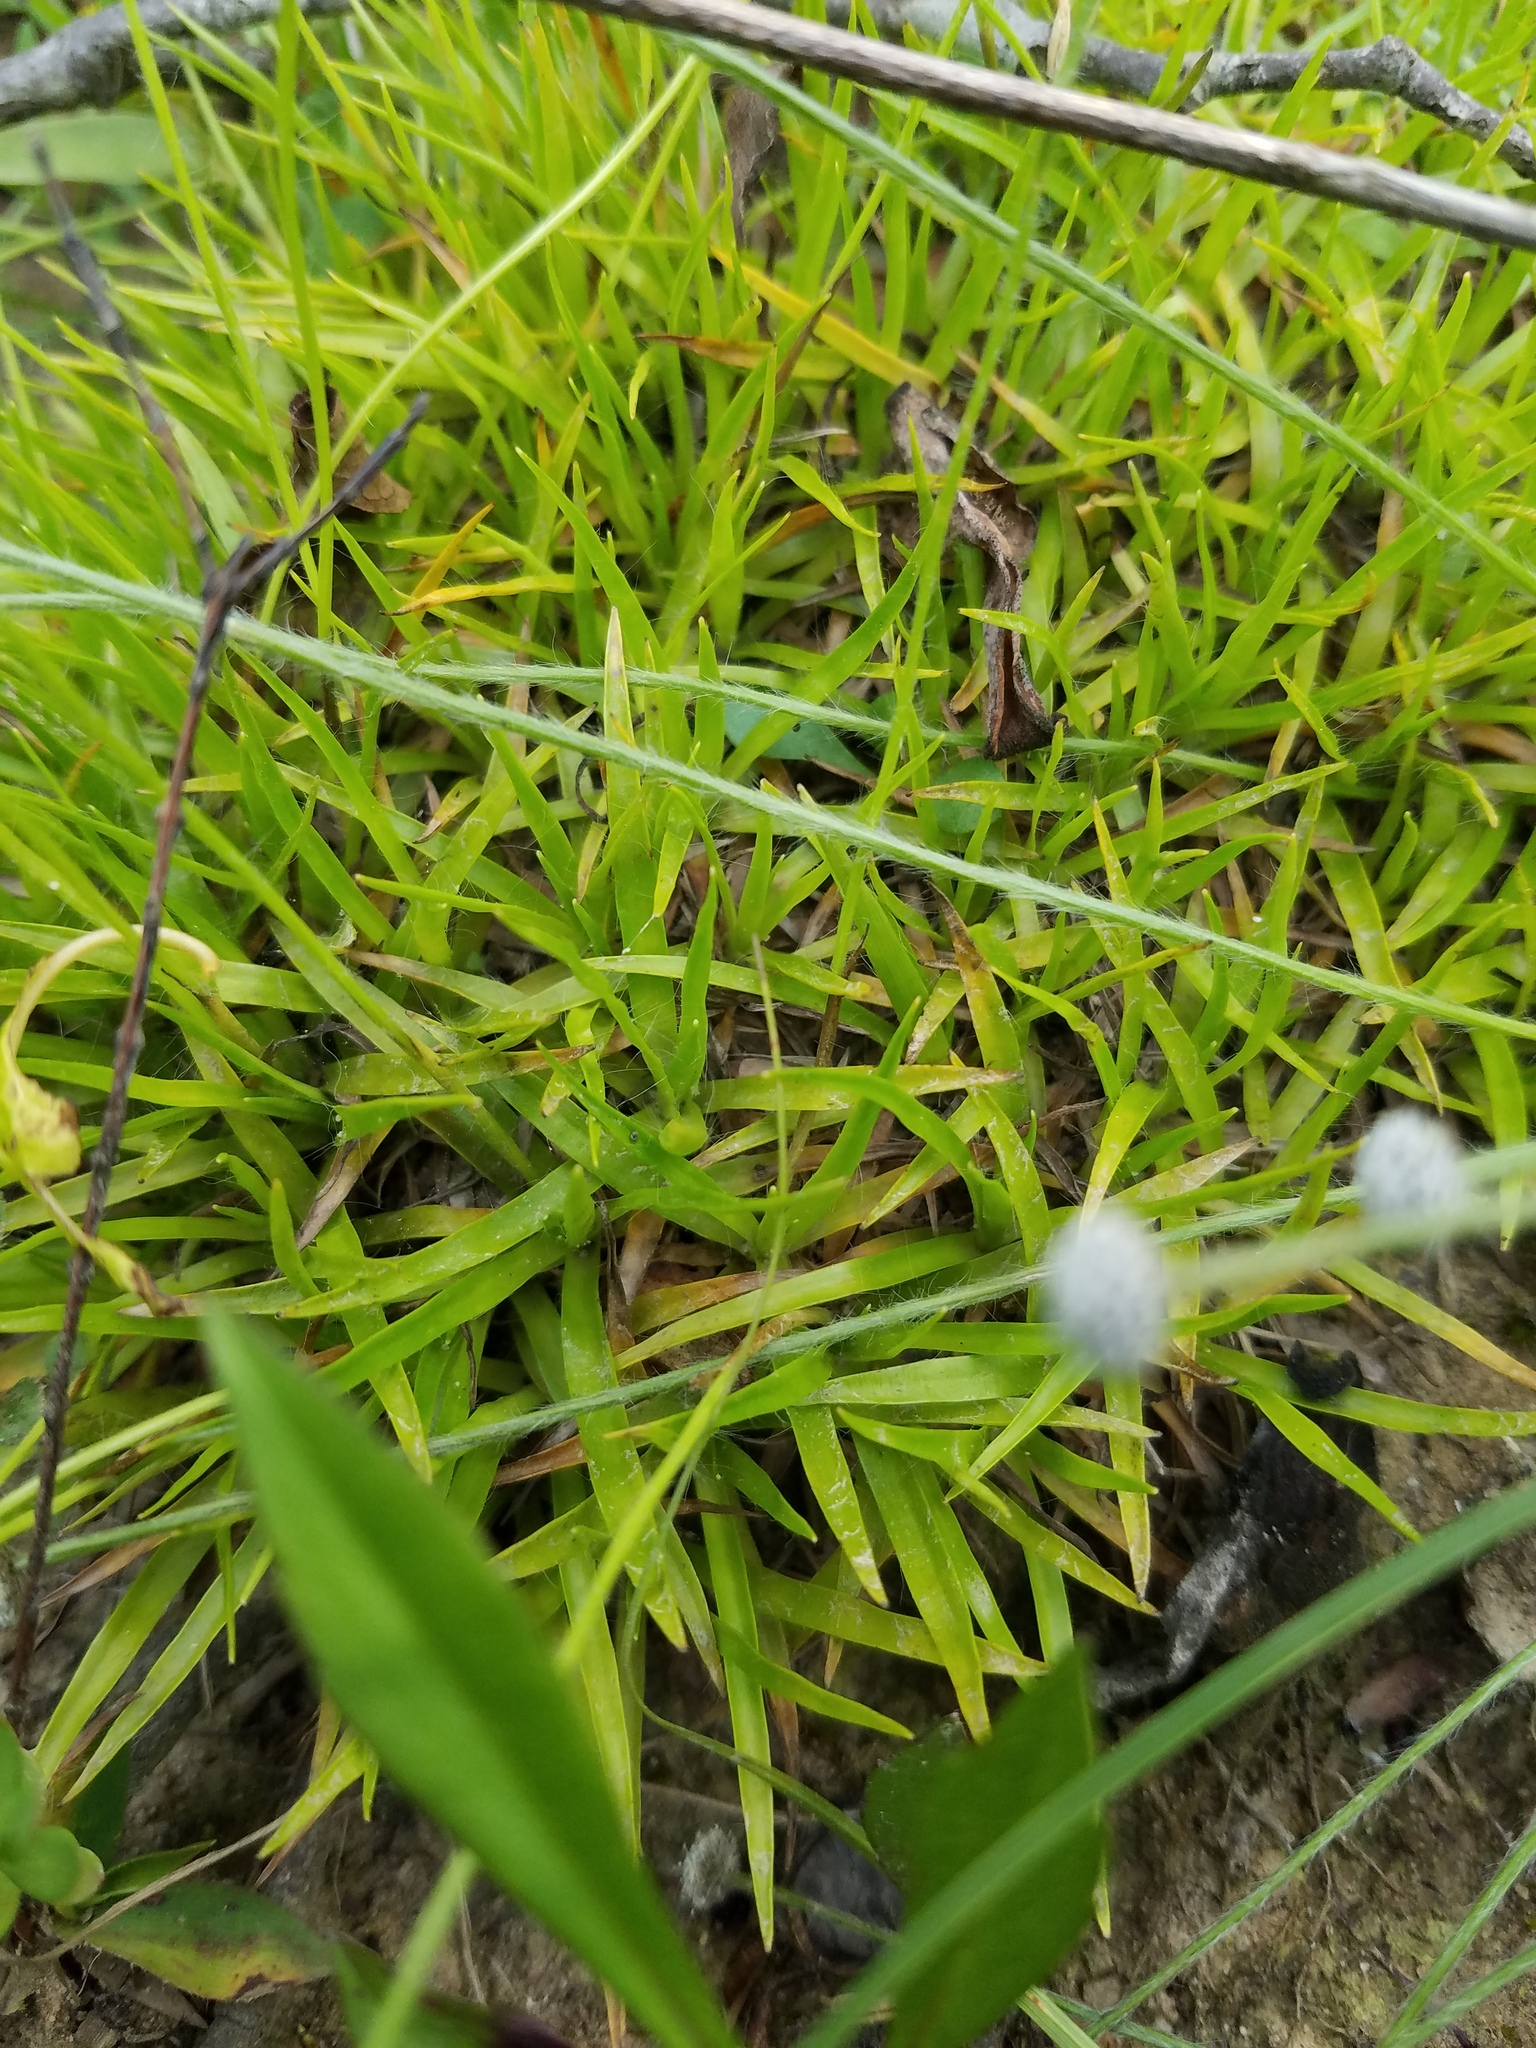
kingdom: Plantae
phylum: Tracheophyta
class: Liliopsida
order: Poales
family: Eriocaulaceae
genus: Paepalanthus
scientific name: Paepalanthus anceps
